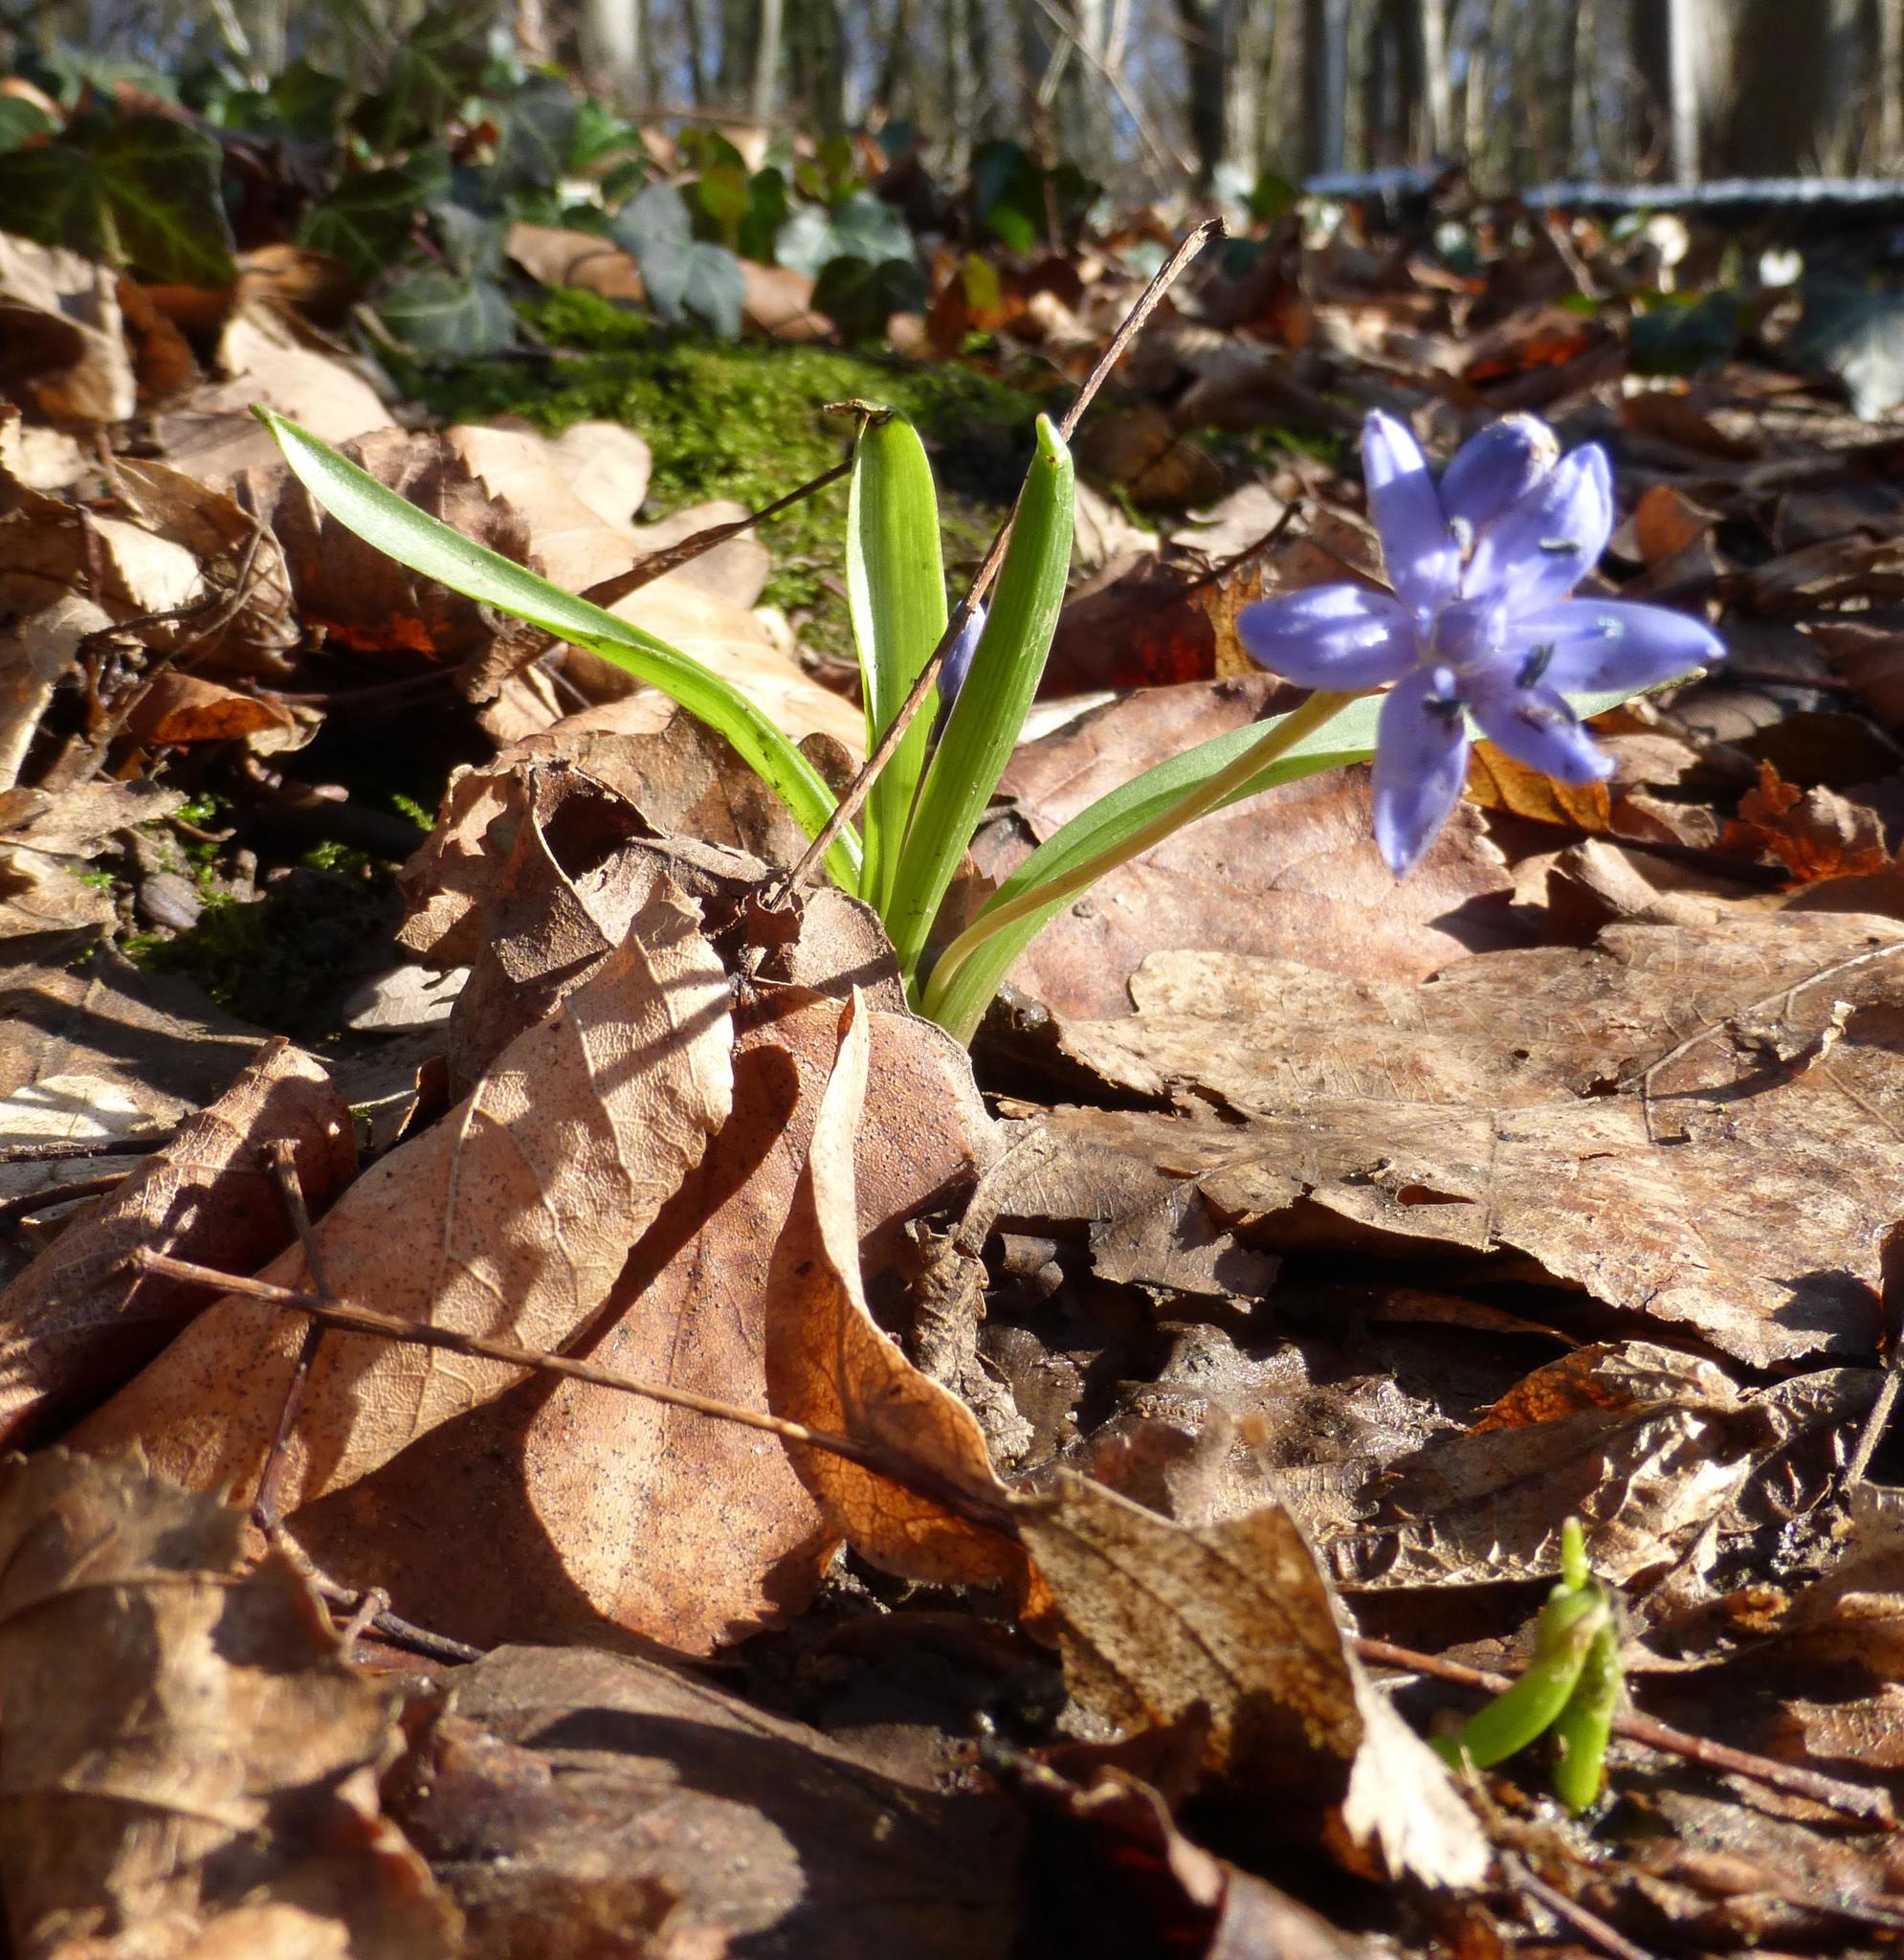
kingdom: Plantae
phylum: Tracheophyta
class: Liliopsida
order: Asparagales
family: Asparagaceae
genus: Scilla
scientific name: Scilla bifolia
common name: Alpine squill
